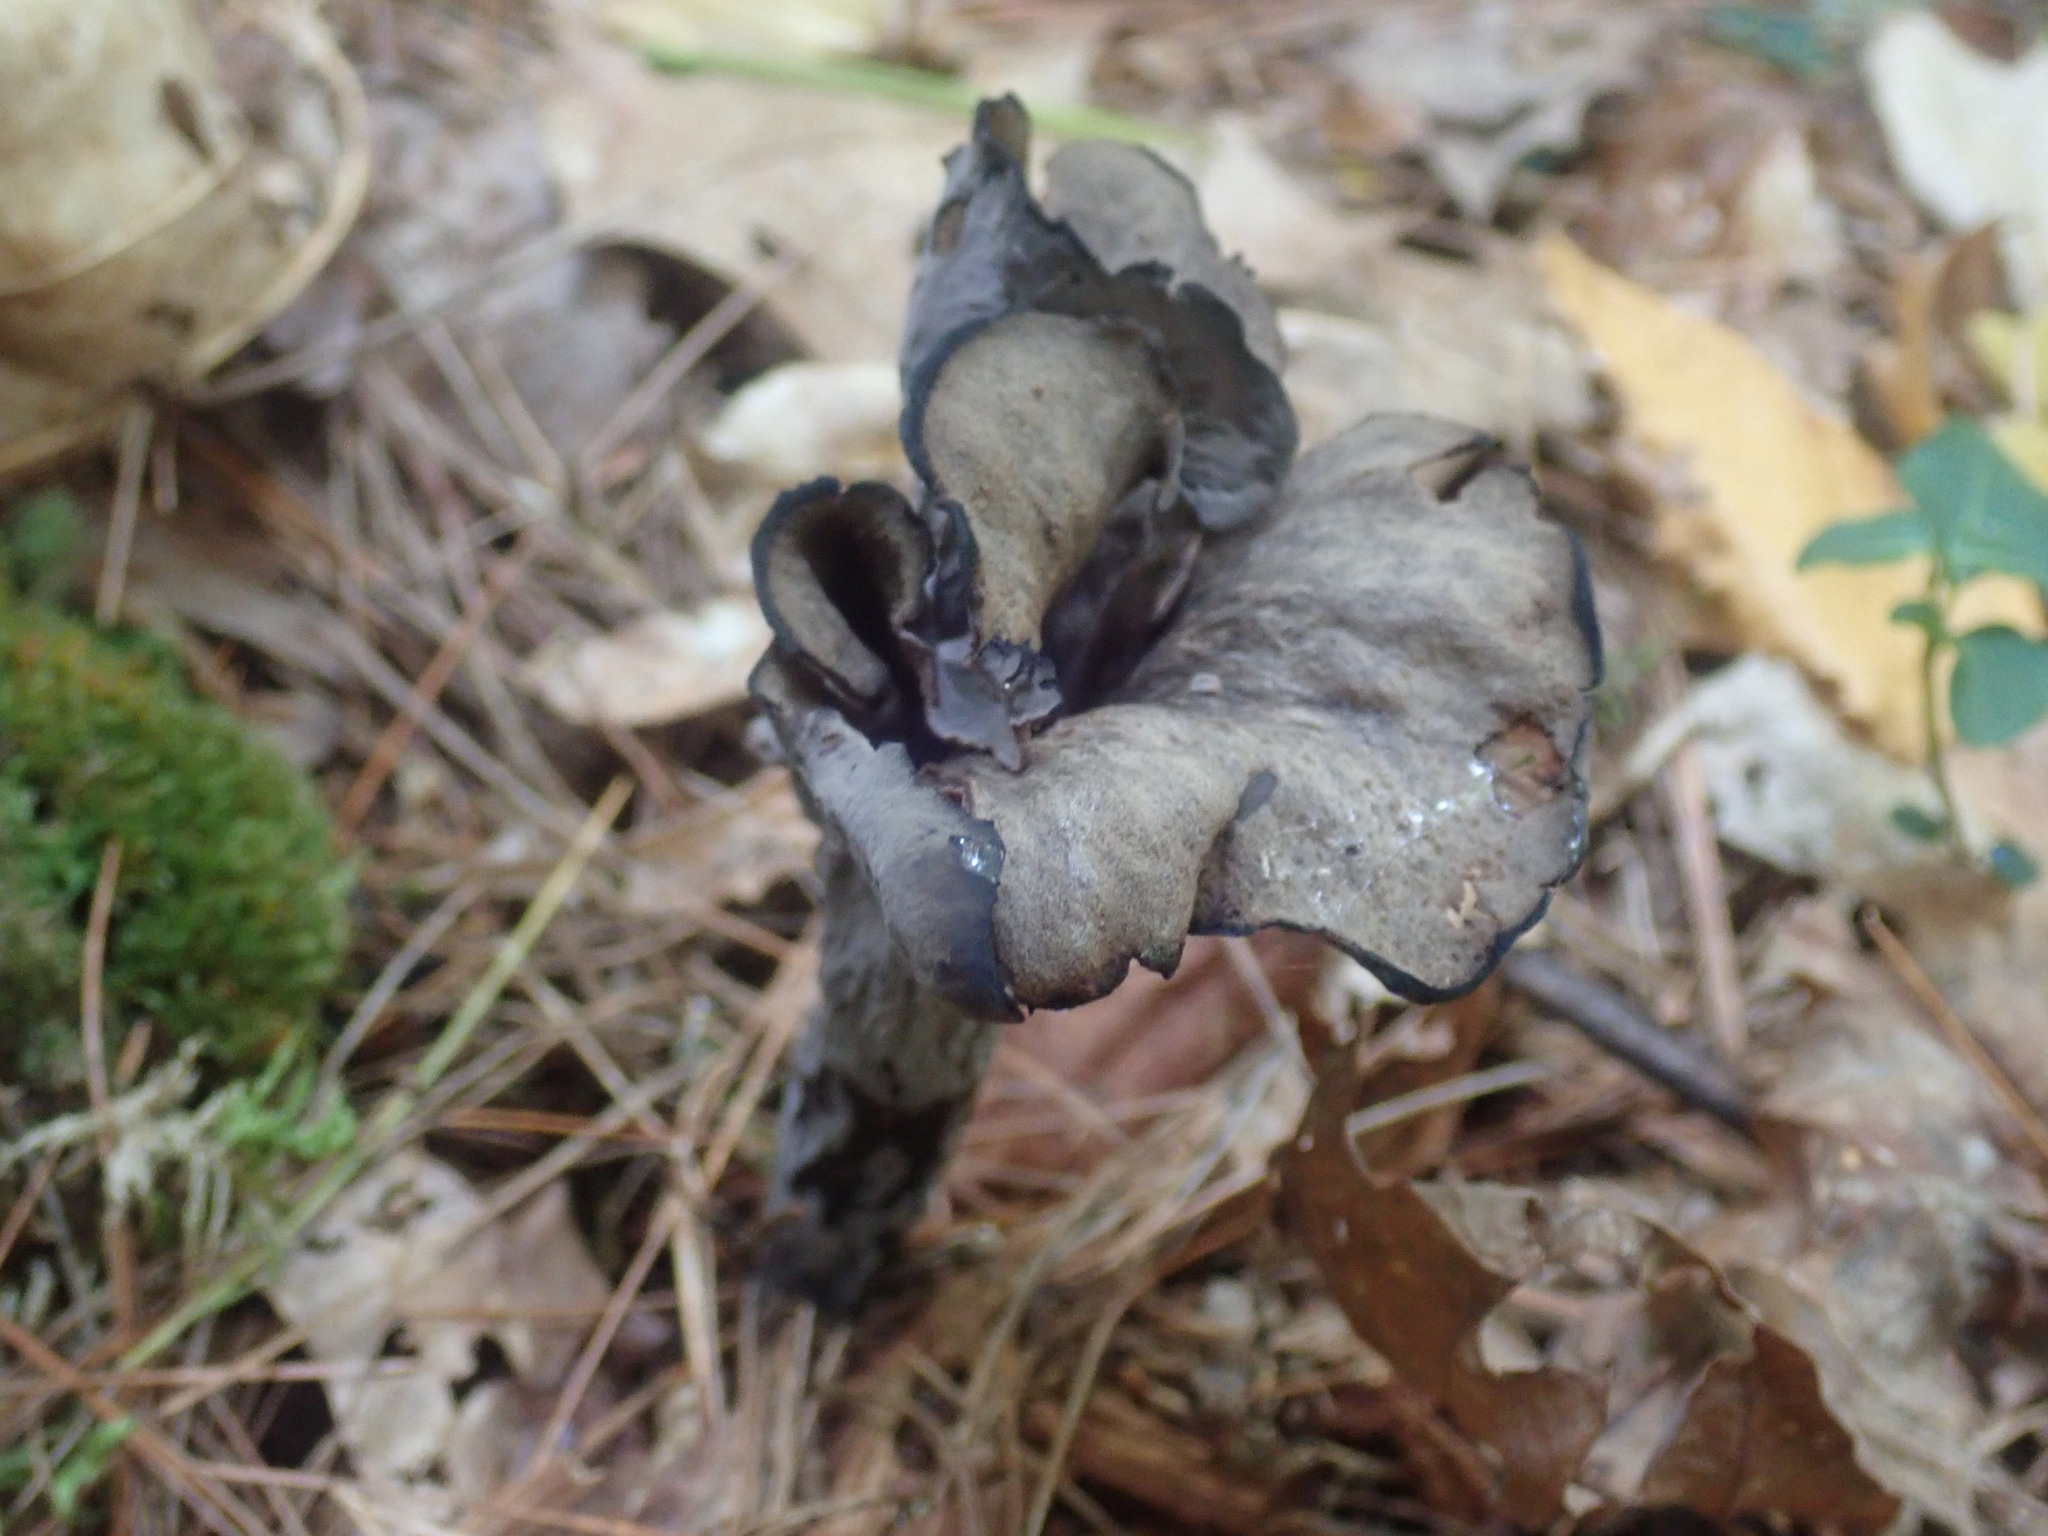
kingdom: Fungi
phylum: Basidiomycota
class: Agaricomycetes
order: Cantharellales
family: Hydnaceae
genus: Craterellus
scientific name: Craterellus cornucopioides
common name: Horn of plenty
